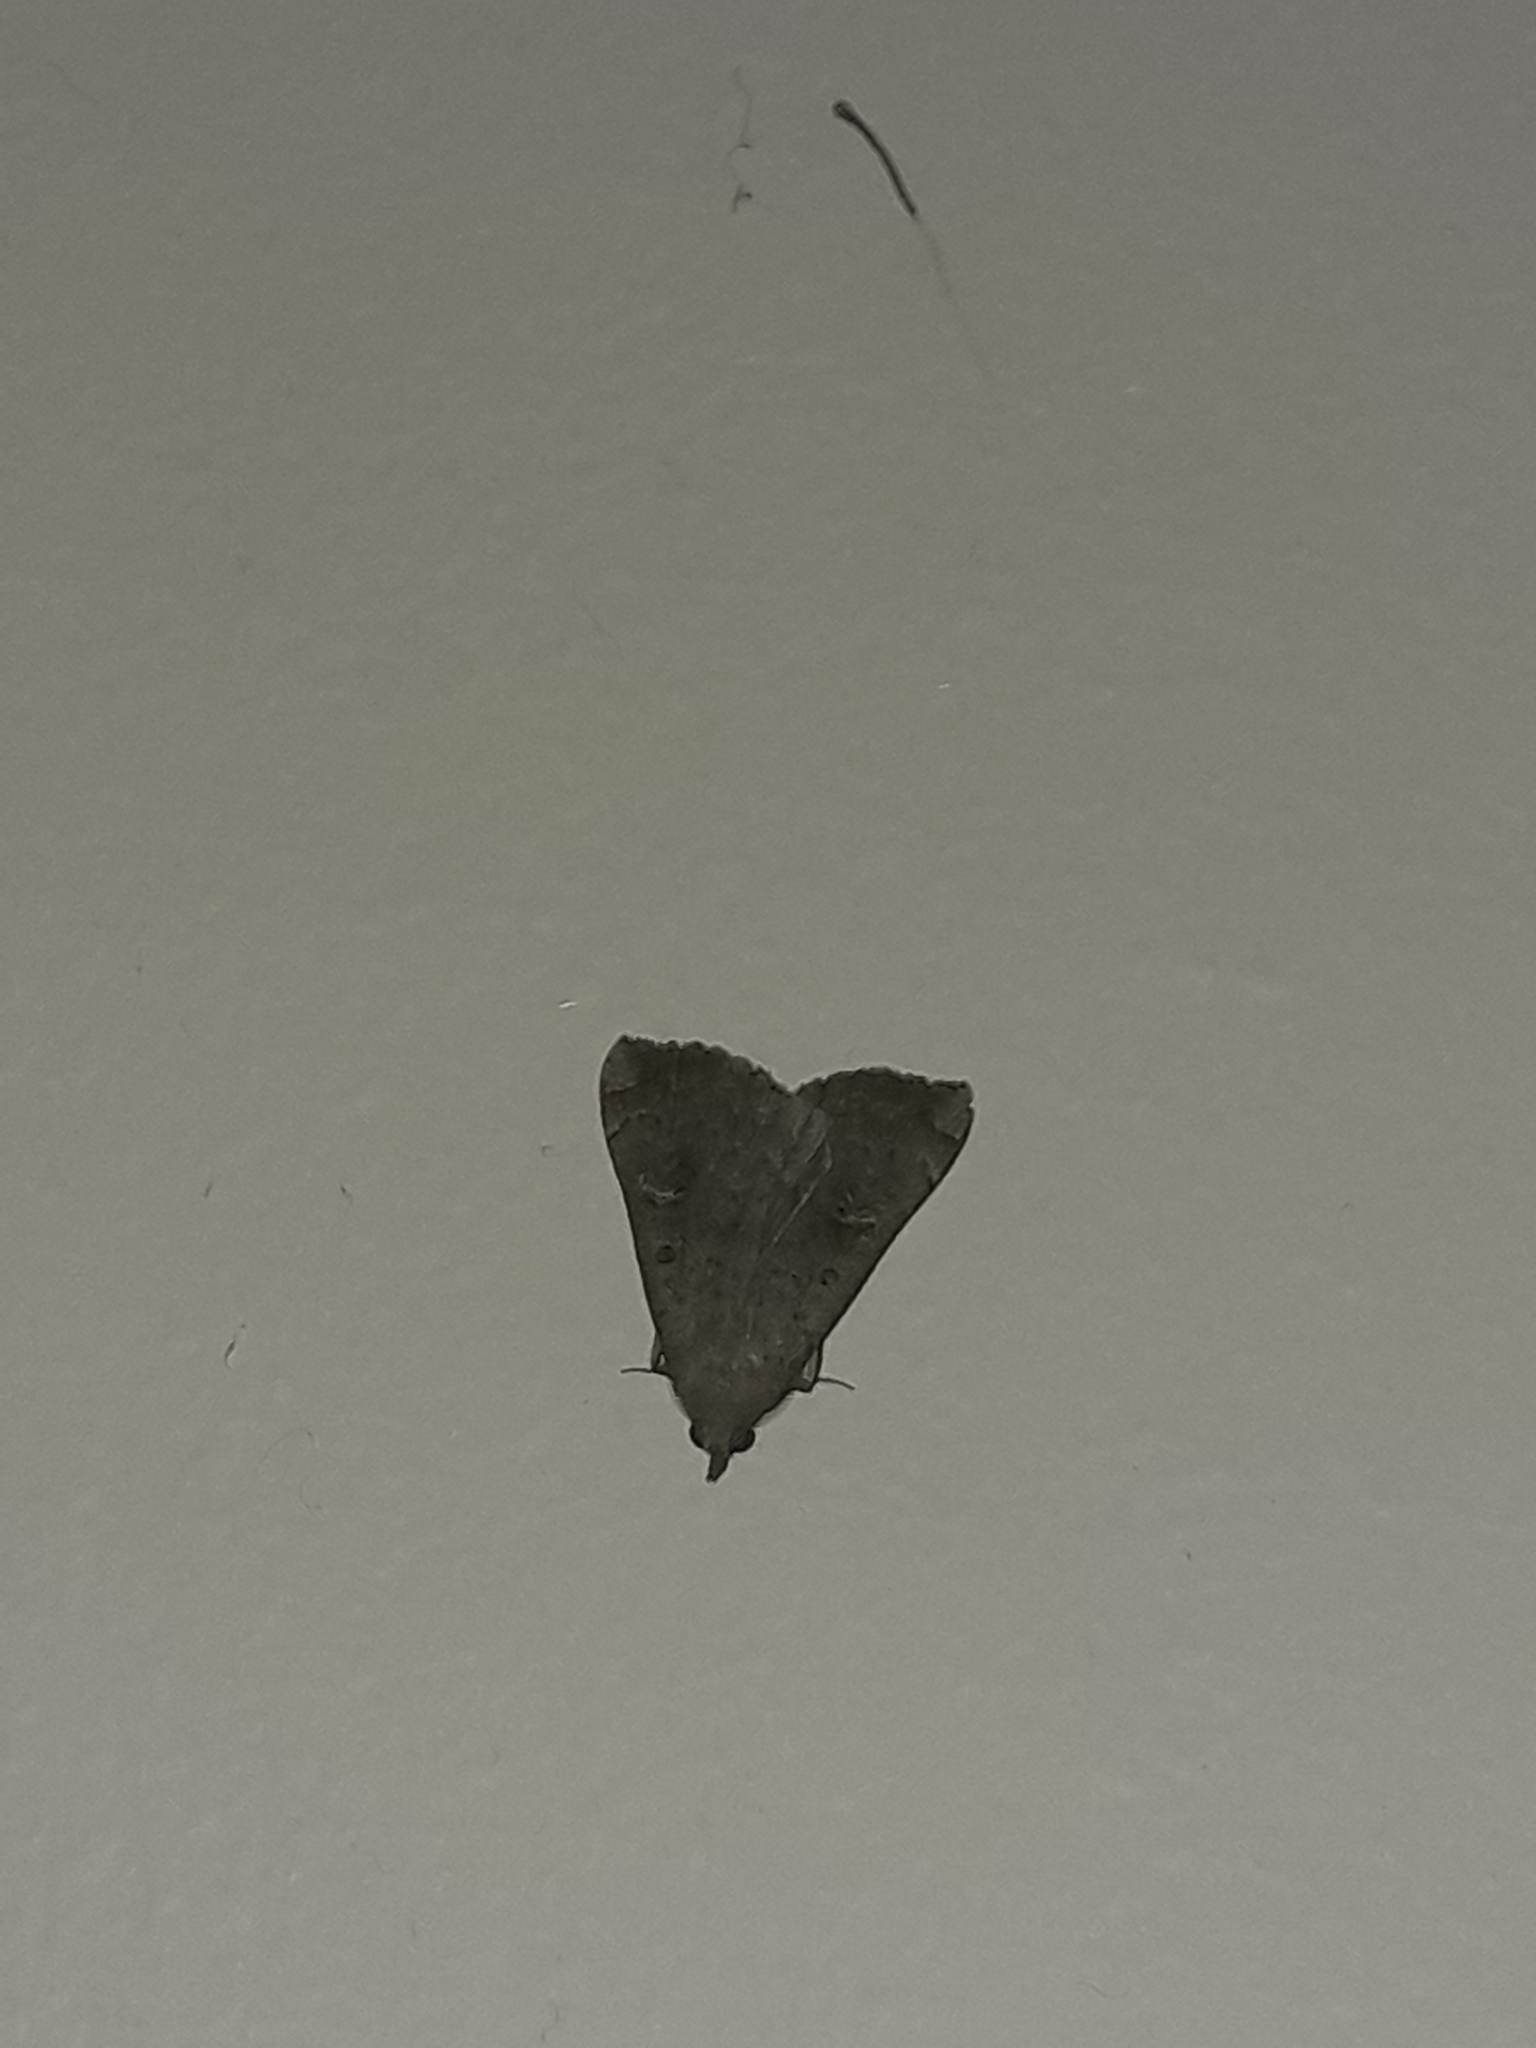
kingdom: Animalia
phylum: Arthropoda
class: Insecta
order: Lepidoptera
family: Erebidae
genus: Rhapsa
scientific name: Rhapsa scotosialis
